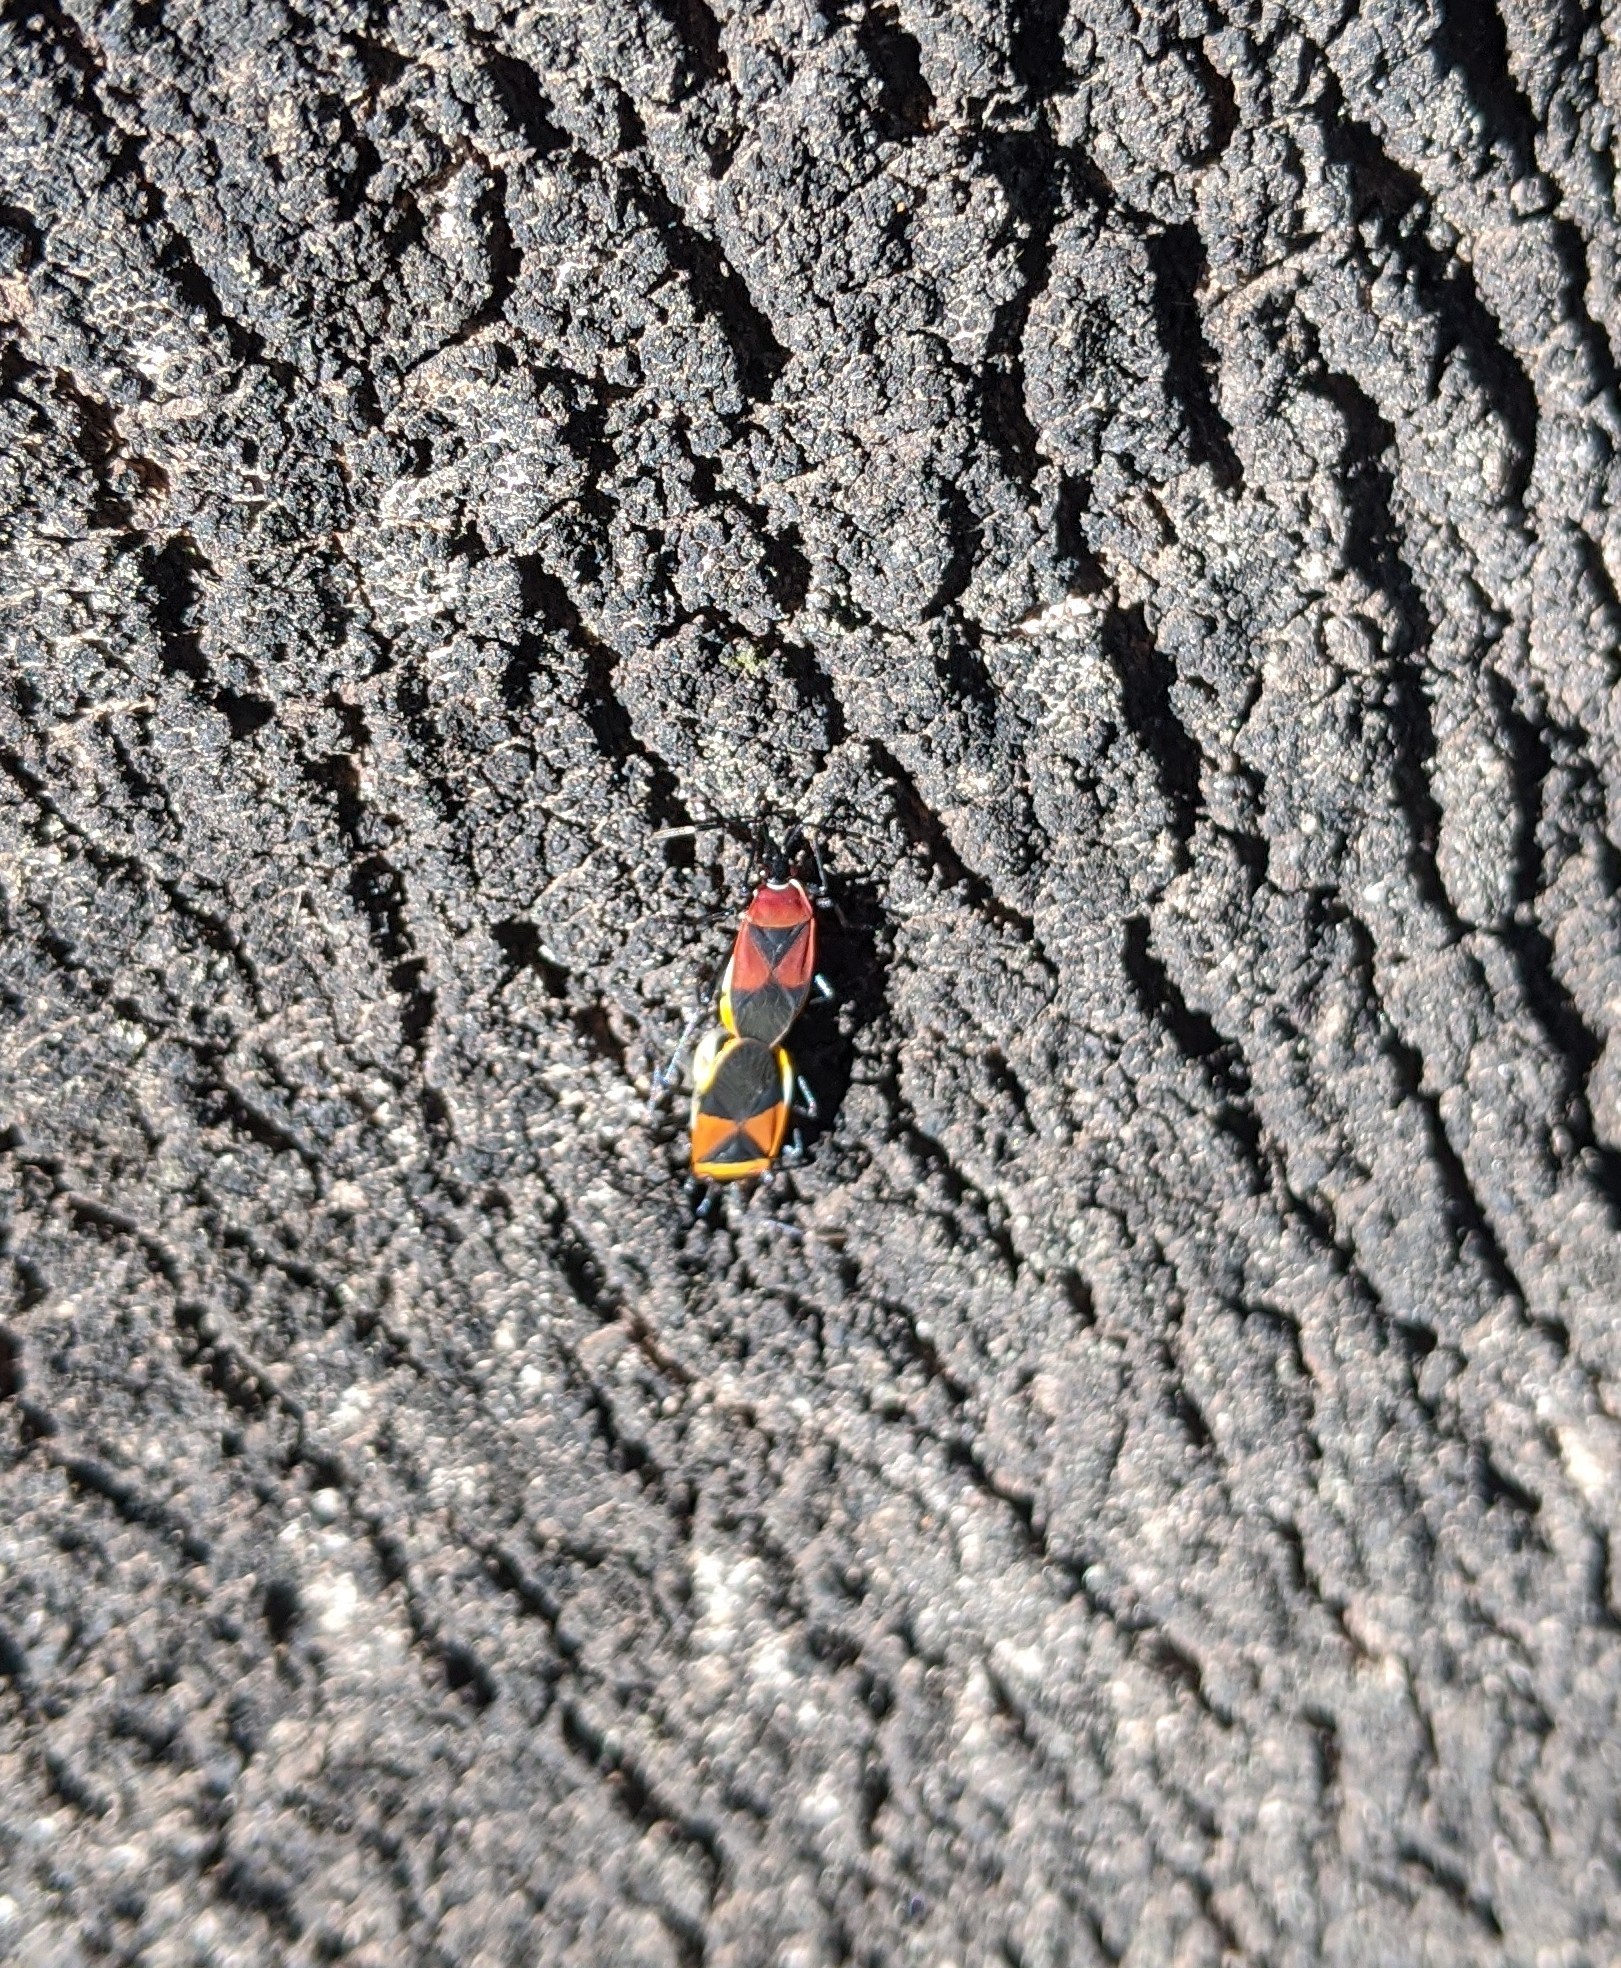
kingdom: Animalia
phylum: Arthropoda
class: Insecta
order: Hemiptera
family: Pyrrhocoridae
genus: Dindymus
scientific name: Dindymus
